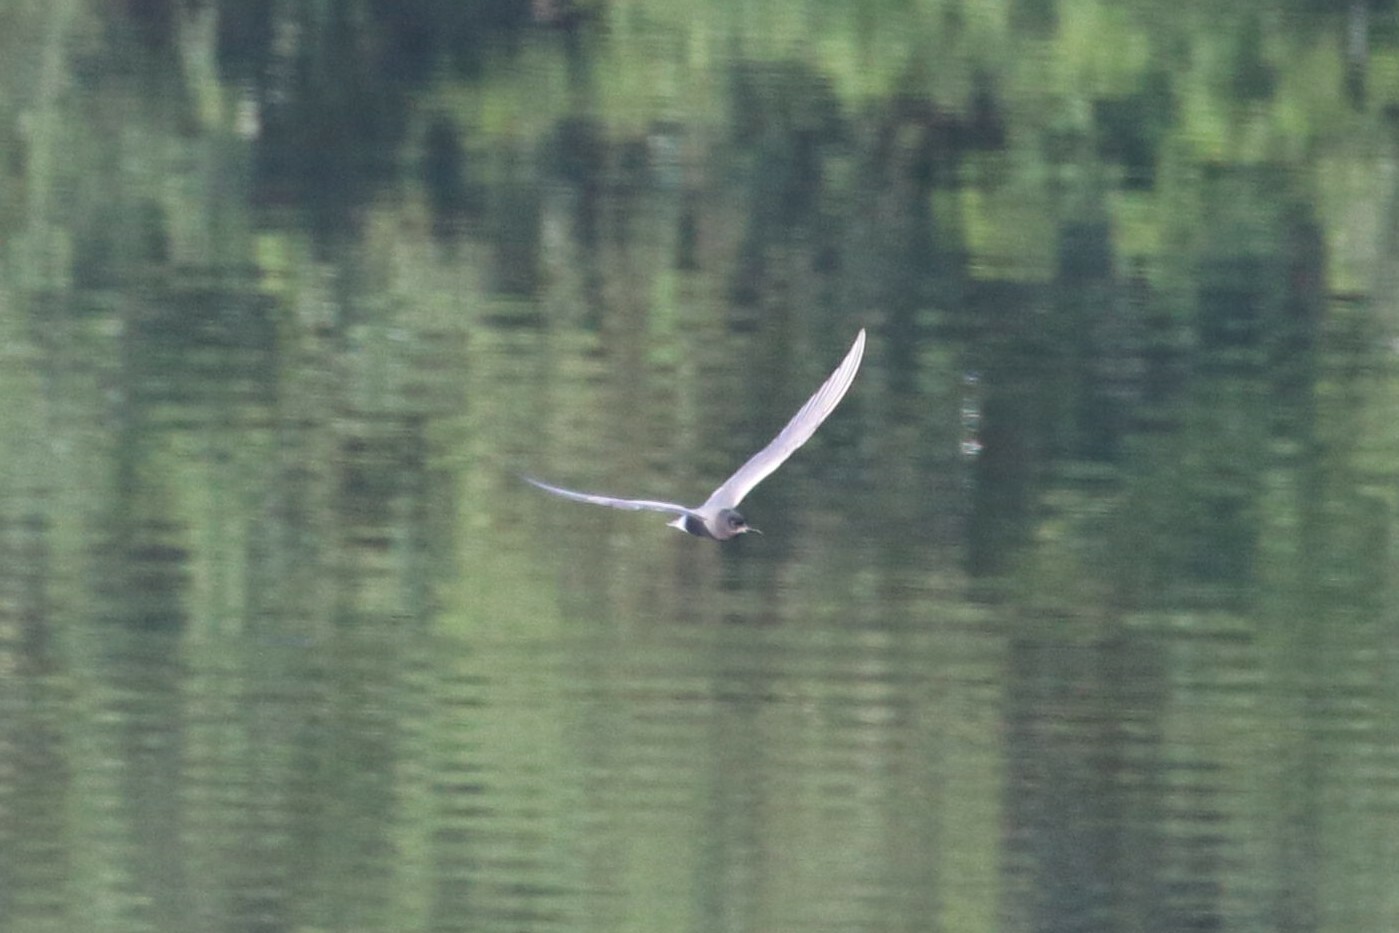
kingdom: Animalia
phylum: Chordata
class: Aves
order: Charadriiformes
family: Laridae
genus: Chlidonias
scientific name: Chlidonias niger
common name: Black tern
